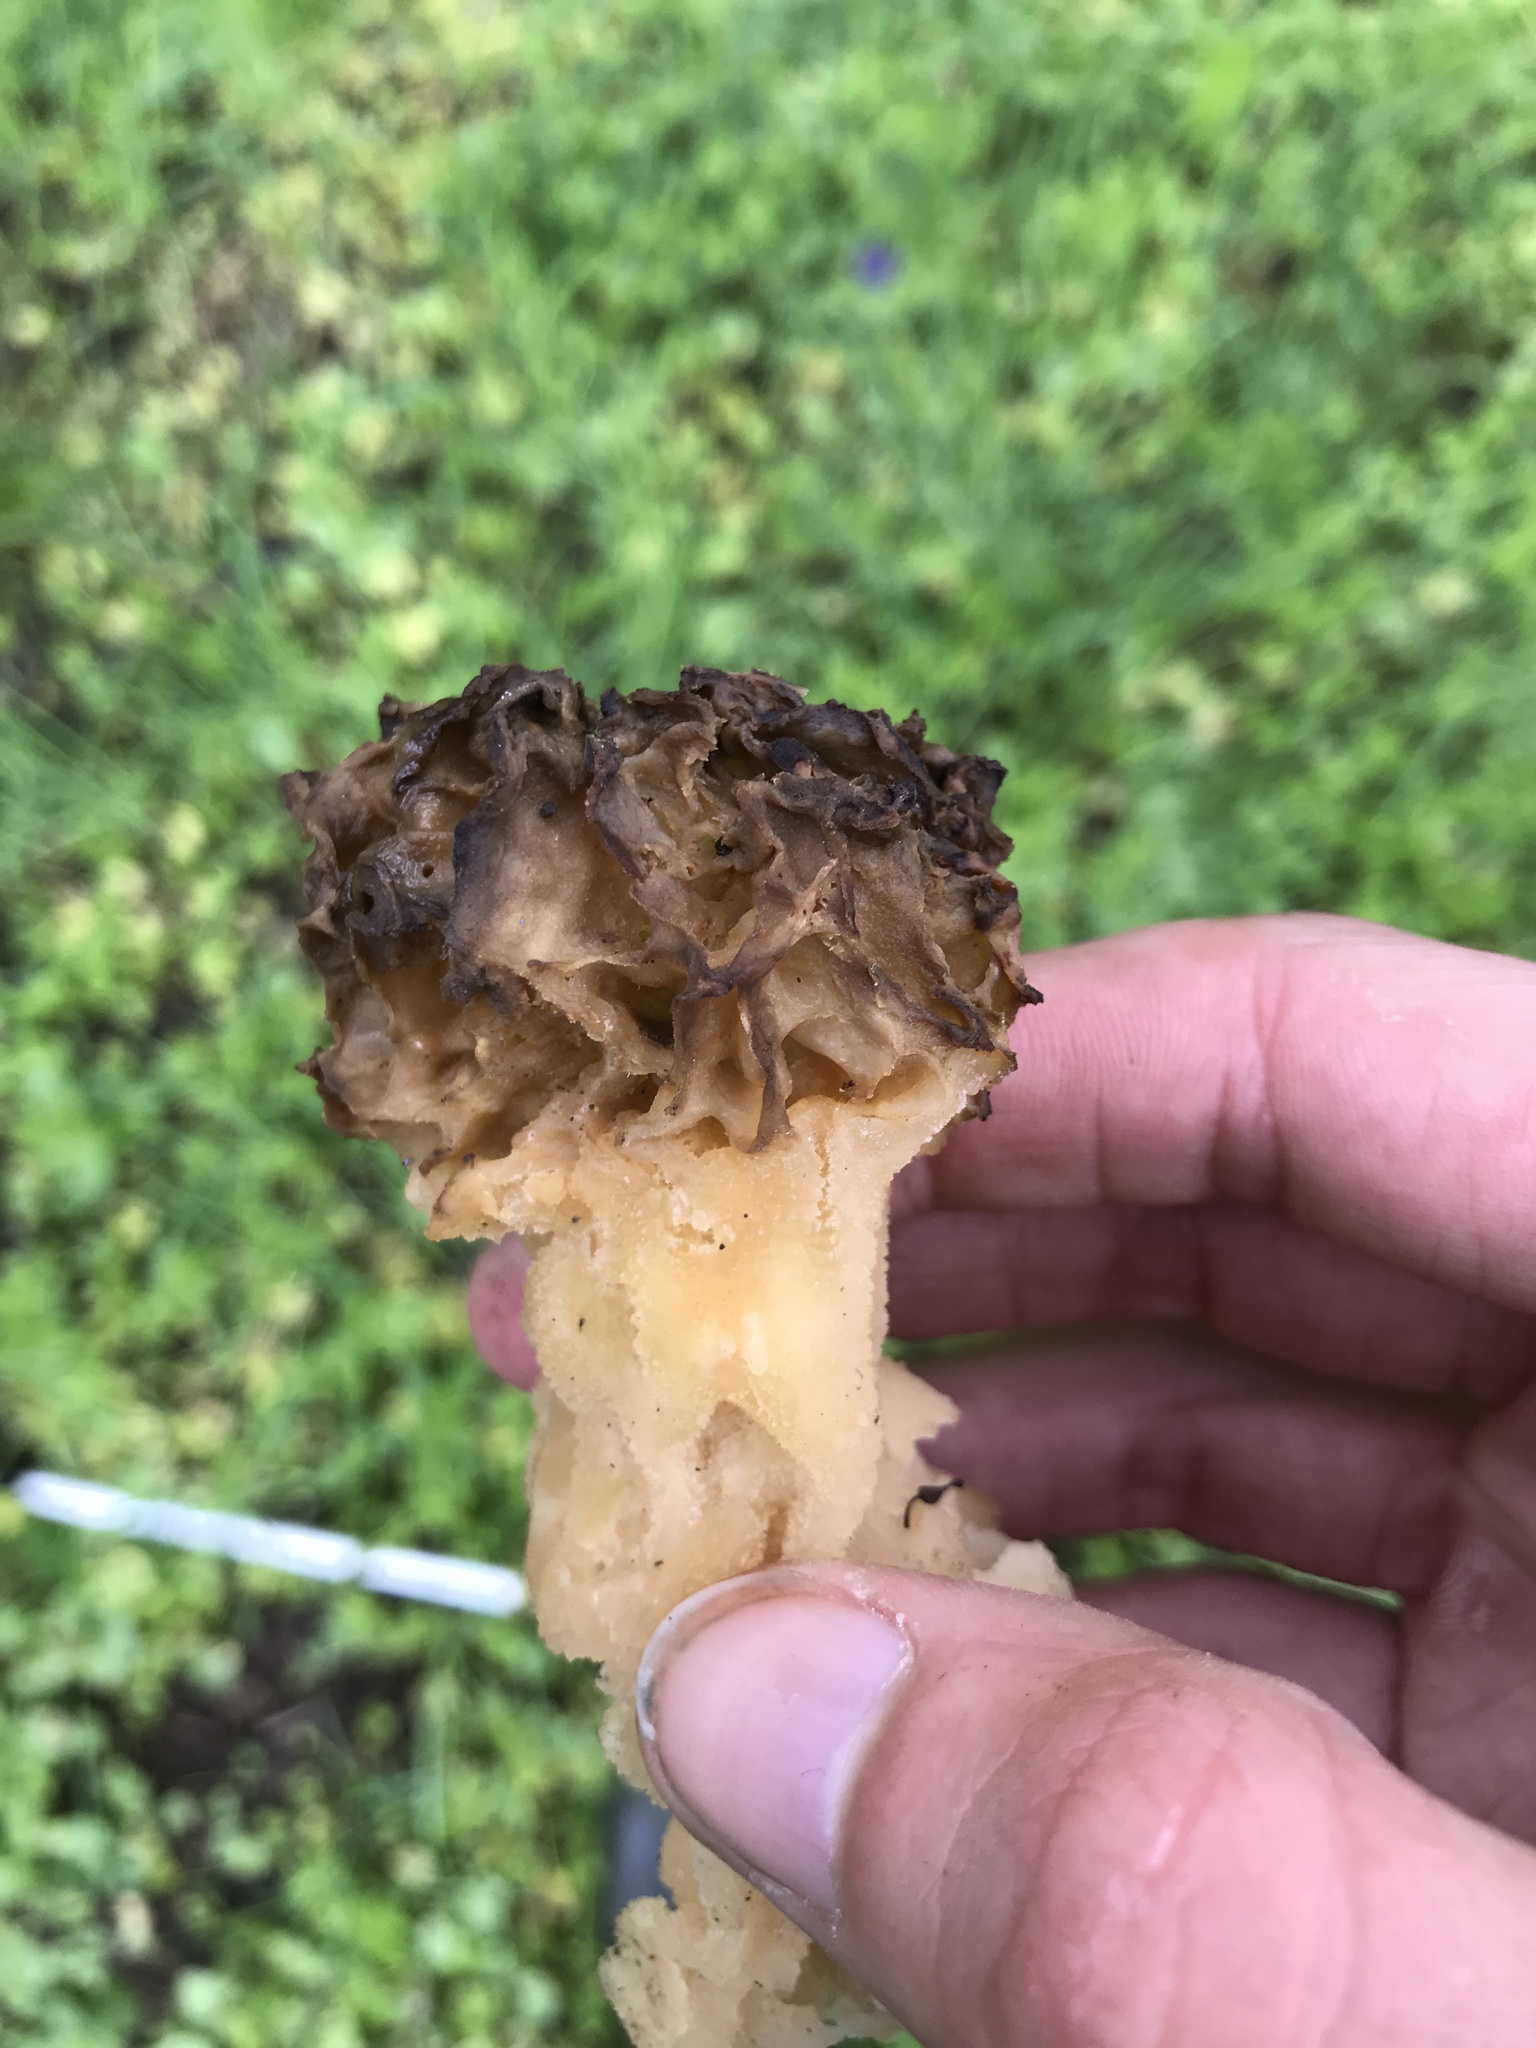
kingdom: Fungi
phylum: Ascomycota
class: Pezizomycetes
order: Pezizales
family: Morchellaceae
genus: Morchella
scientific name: Morchella esculenta
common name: Morel
